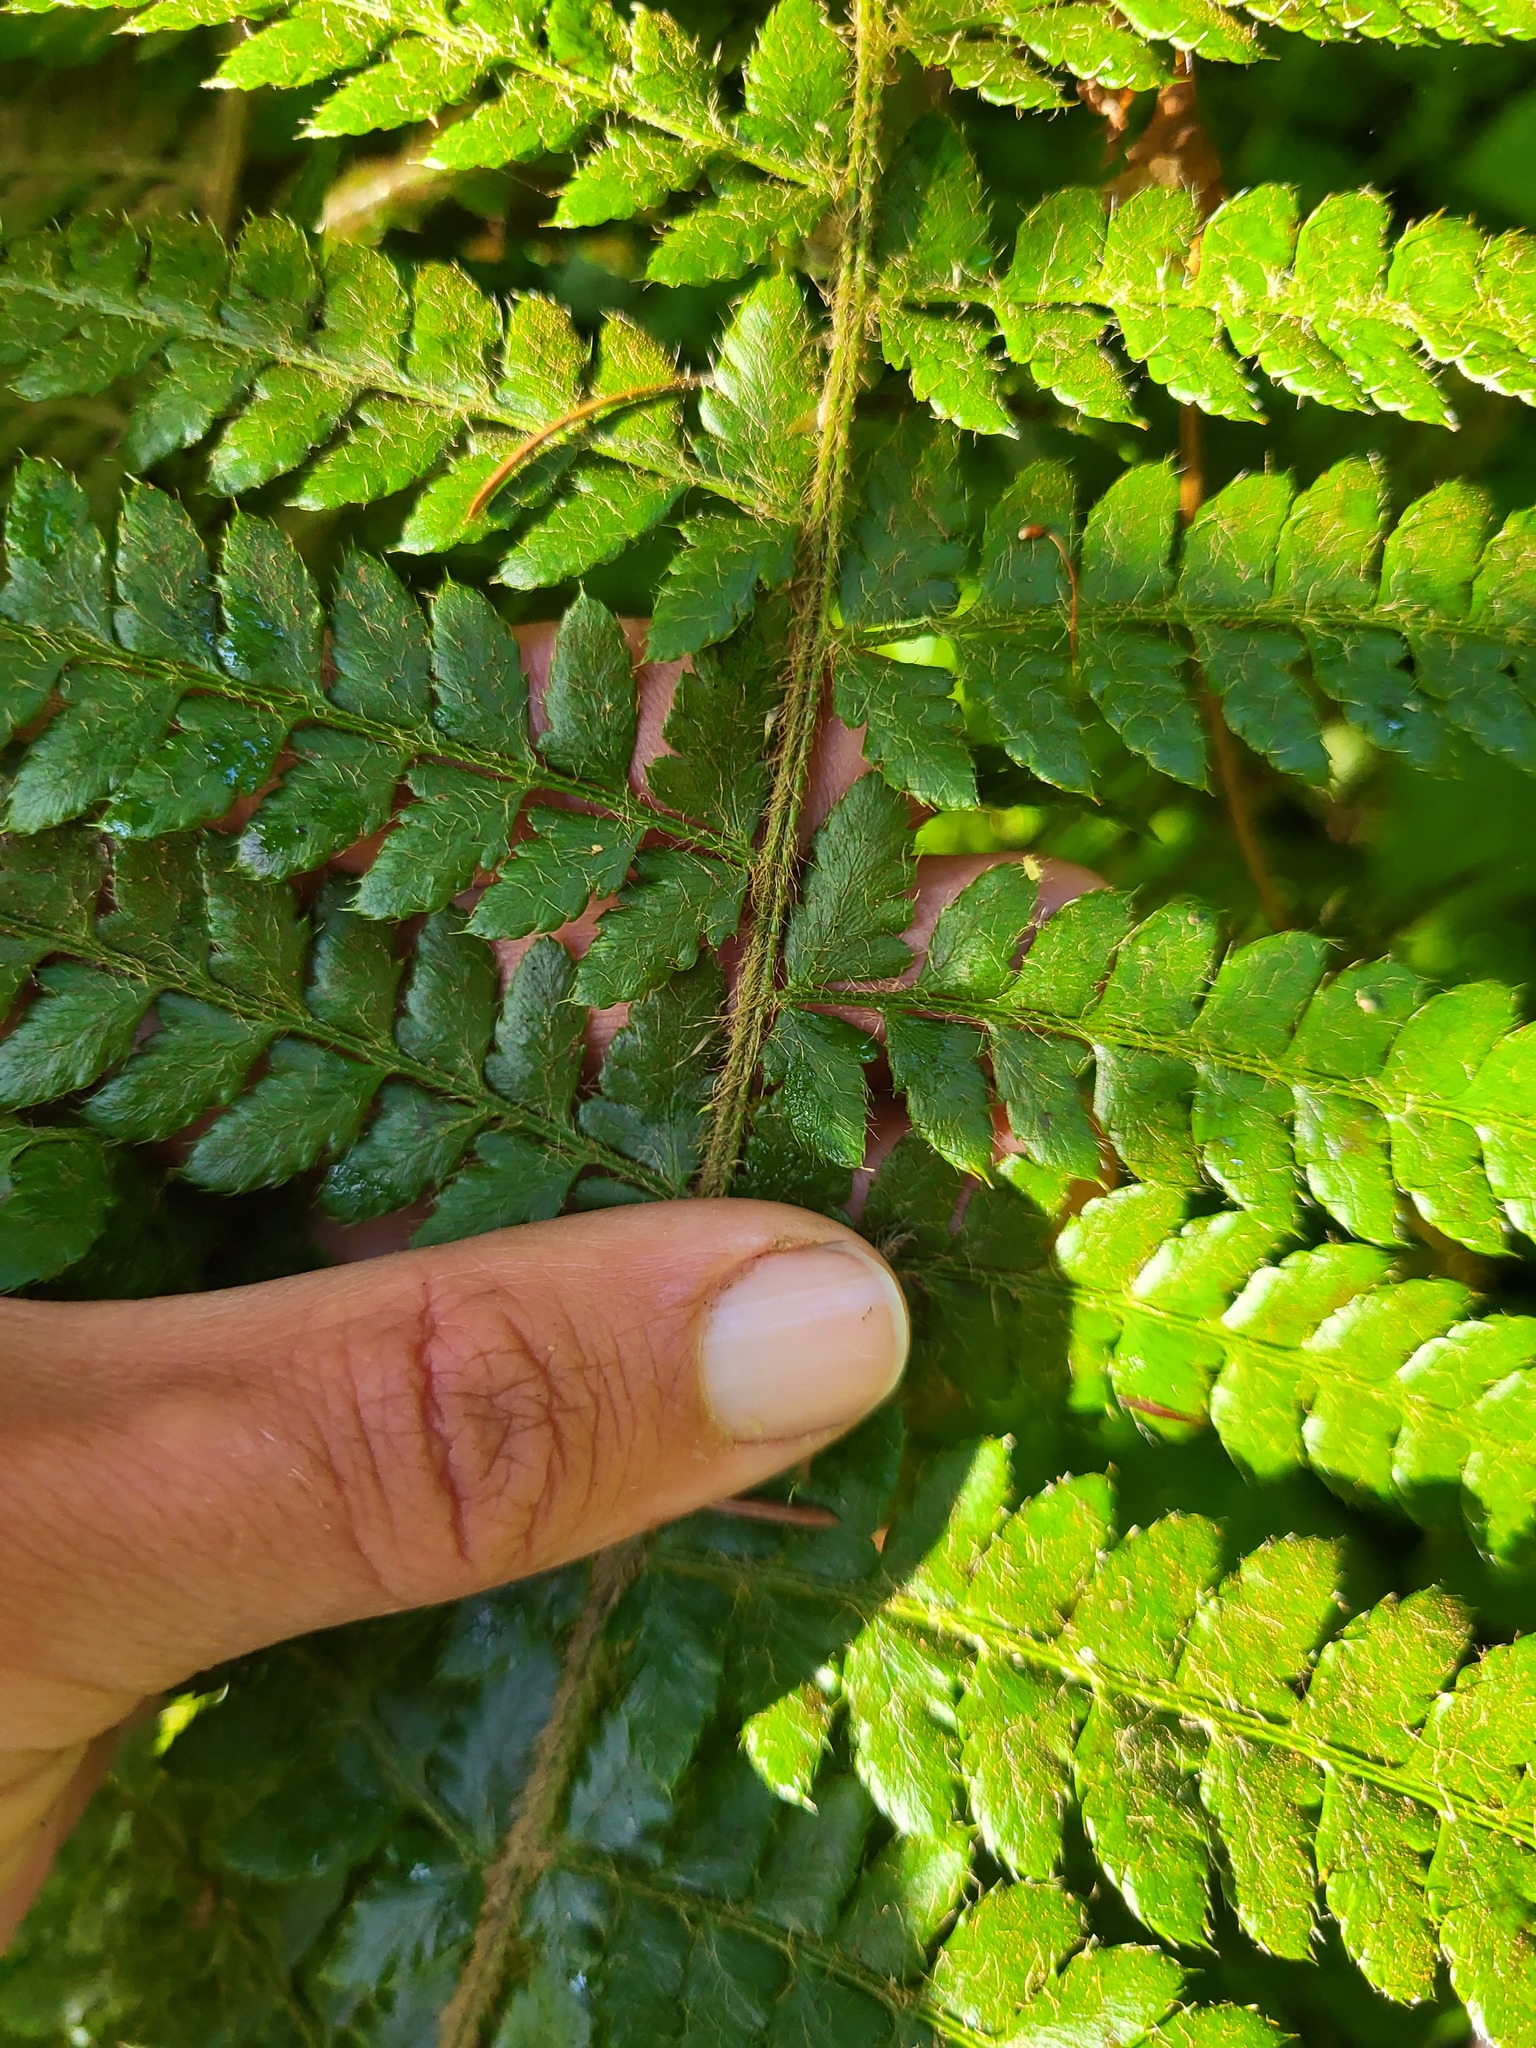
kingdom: Plantae
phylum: Tracheophyta
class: Polypodiopsida
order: Polypodiales
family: Dryopteridaceae
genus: Polystichum
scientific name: Polystichum braunii
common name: Braun's holly fern
